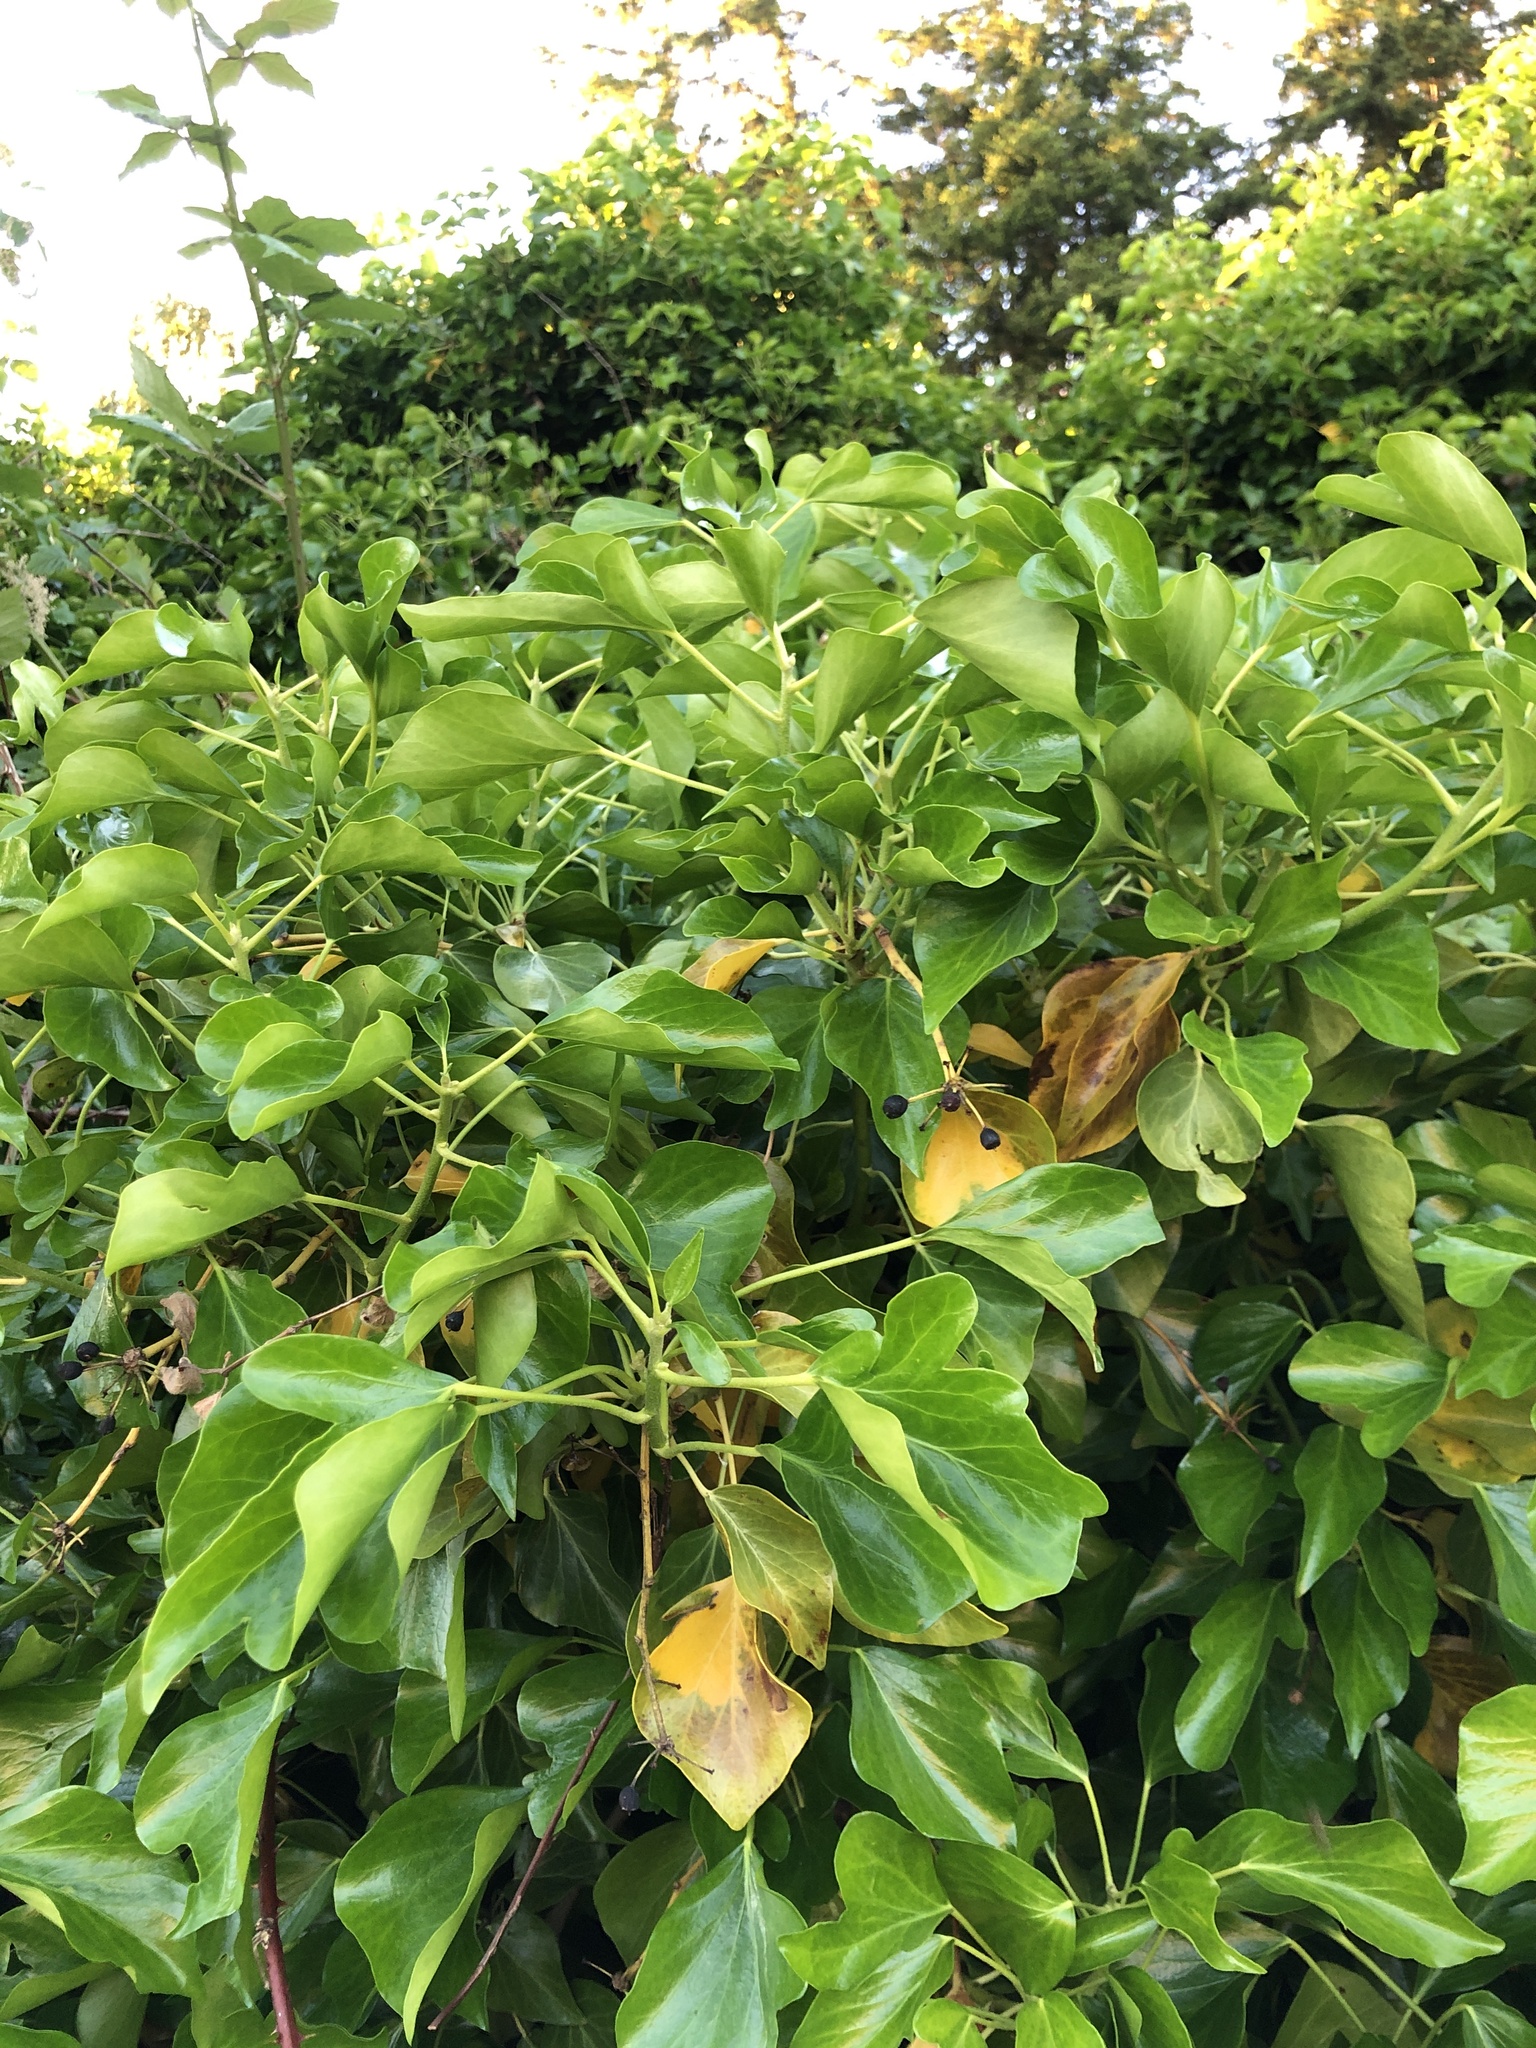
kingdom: Plantae
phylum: Tracheophyta
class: Magnoliopsida
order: Apiales
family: Araliaceae
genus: Hedera
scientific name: Hedera helix
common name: Ivy
